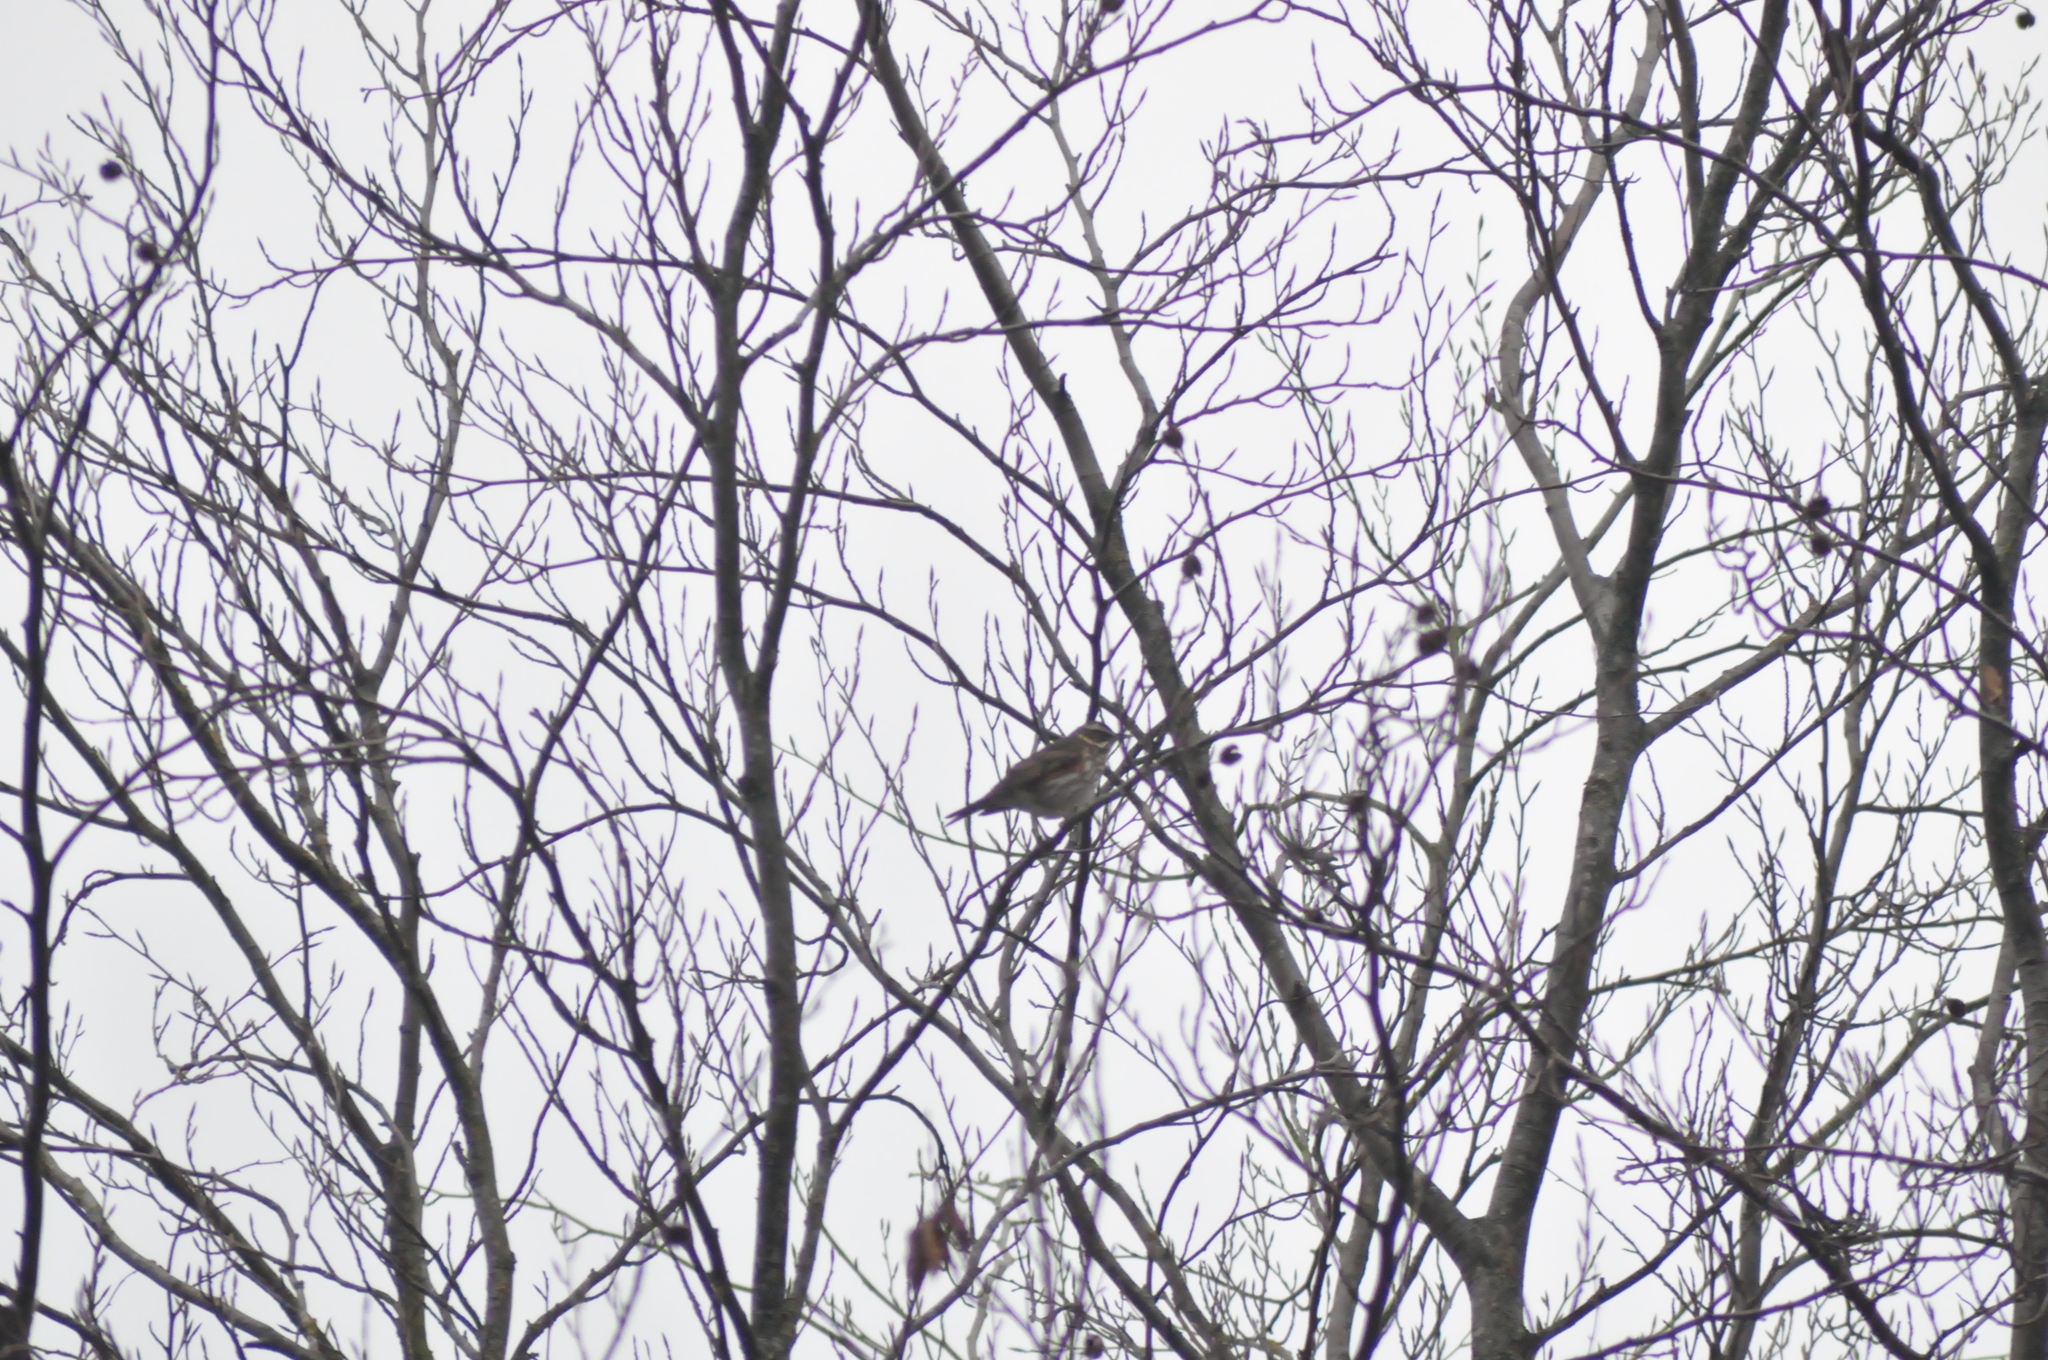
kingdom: Animalia
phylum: Chordata
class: Aves
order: Passeriformes
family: Turdidae
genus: Turdus
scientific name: Turdus iliacus
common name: Redwing
